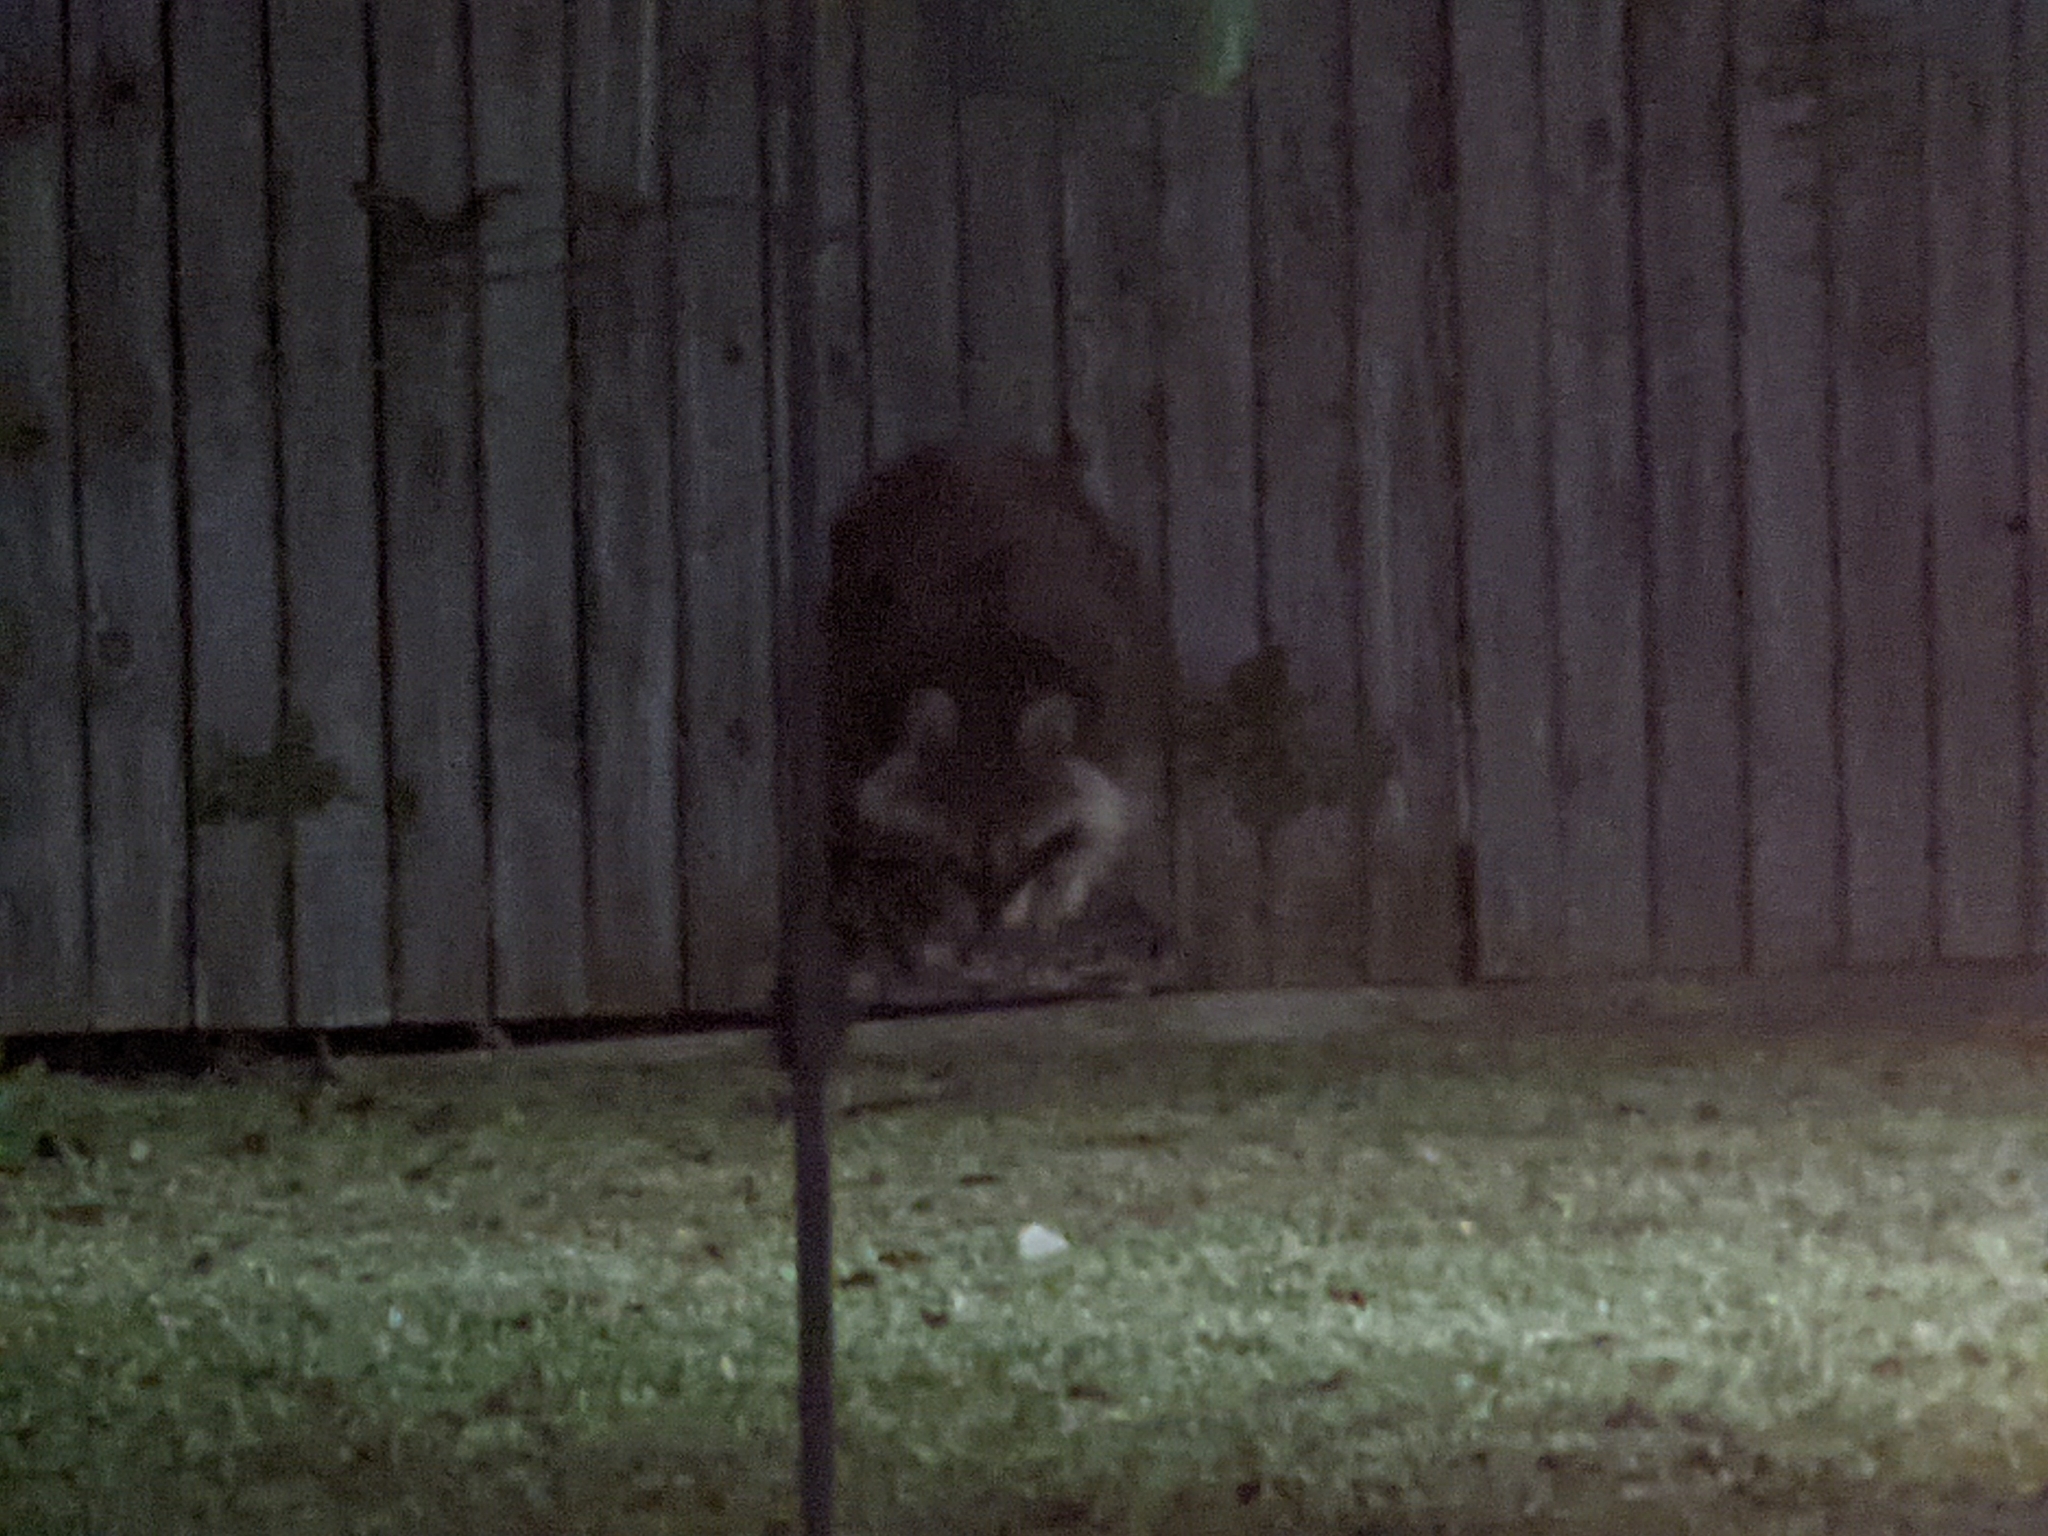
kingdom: Animalia
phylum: Chordata
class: Mammalia
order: Carnivora
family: Procyonidae
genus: Procyon
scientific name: Procyon lotor
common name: Raccoon
